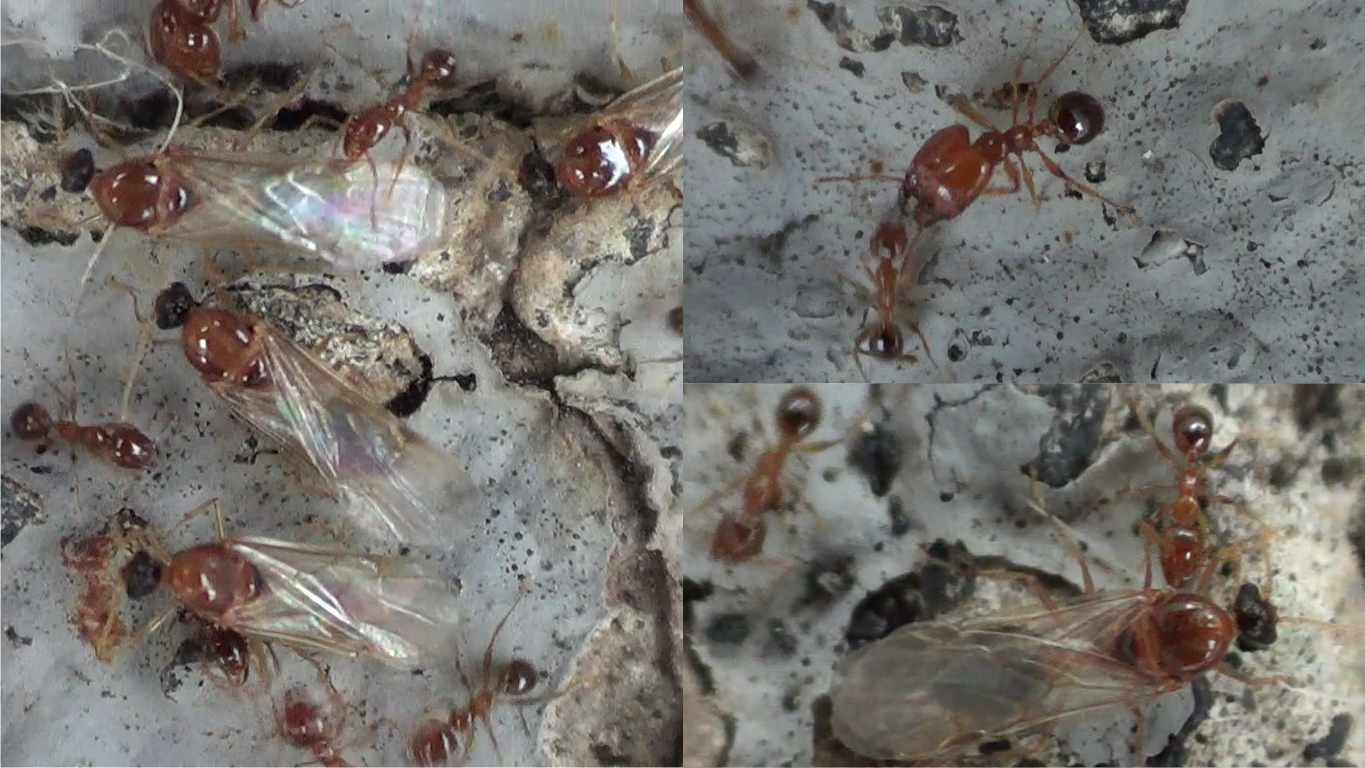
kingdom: Animalia
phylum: Arthropoda
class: Insecta
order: Hymenoptera
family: Formicidae
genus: Pheidole
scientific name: Pheidole pallidula
